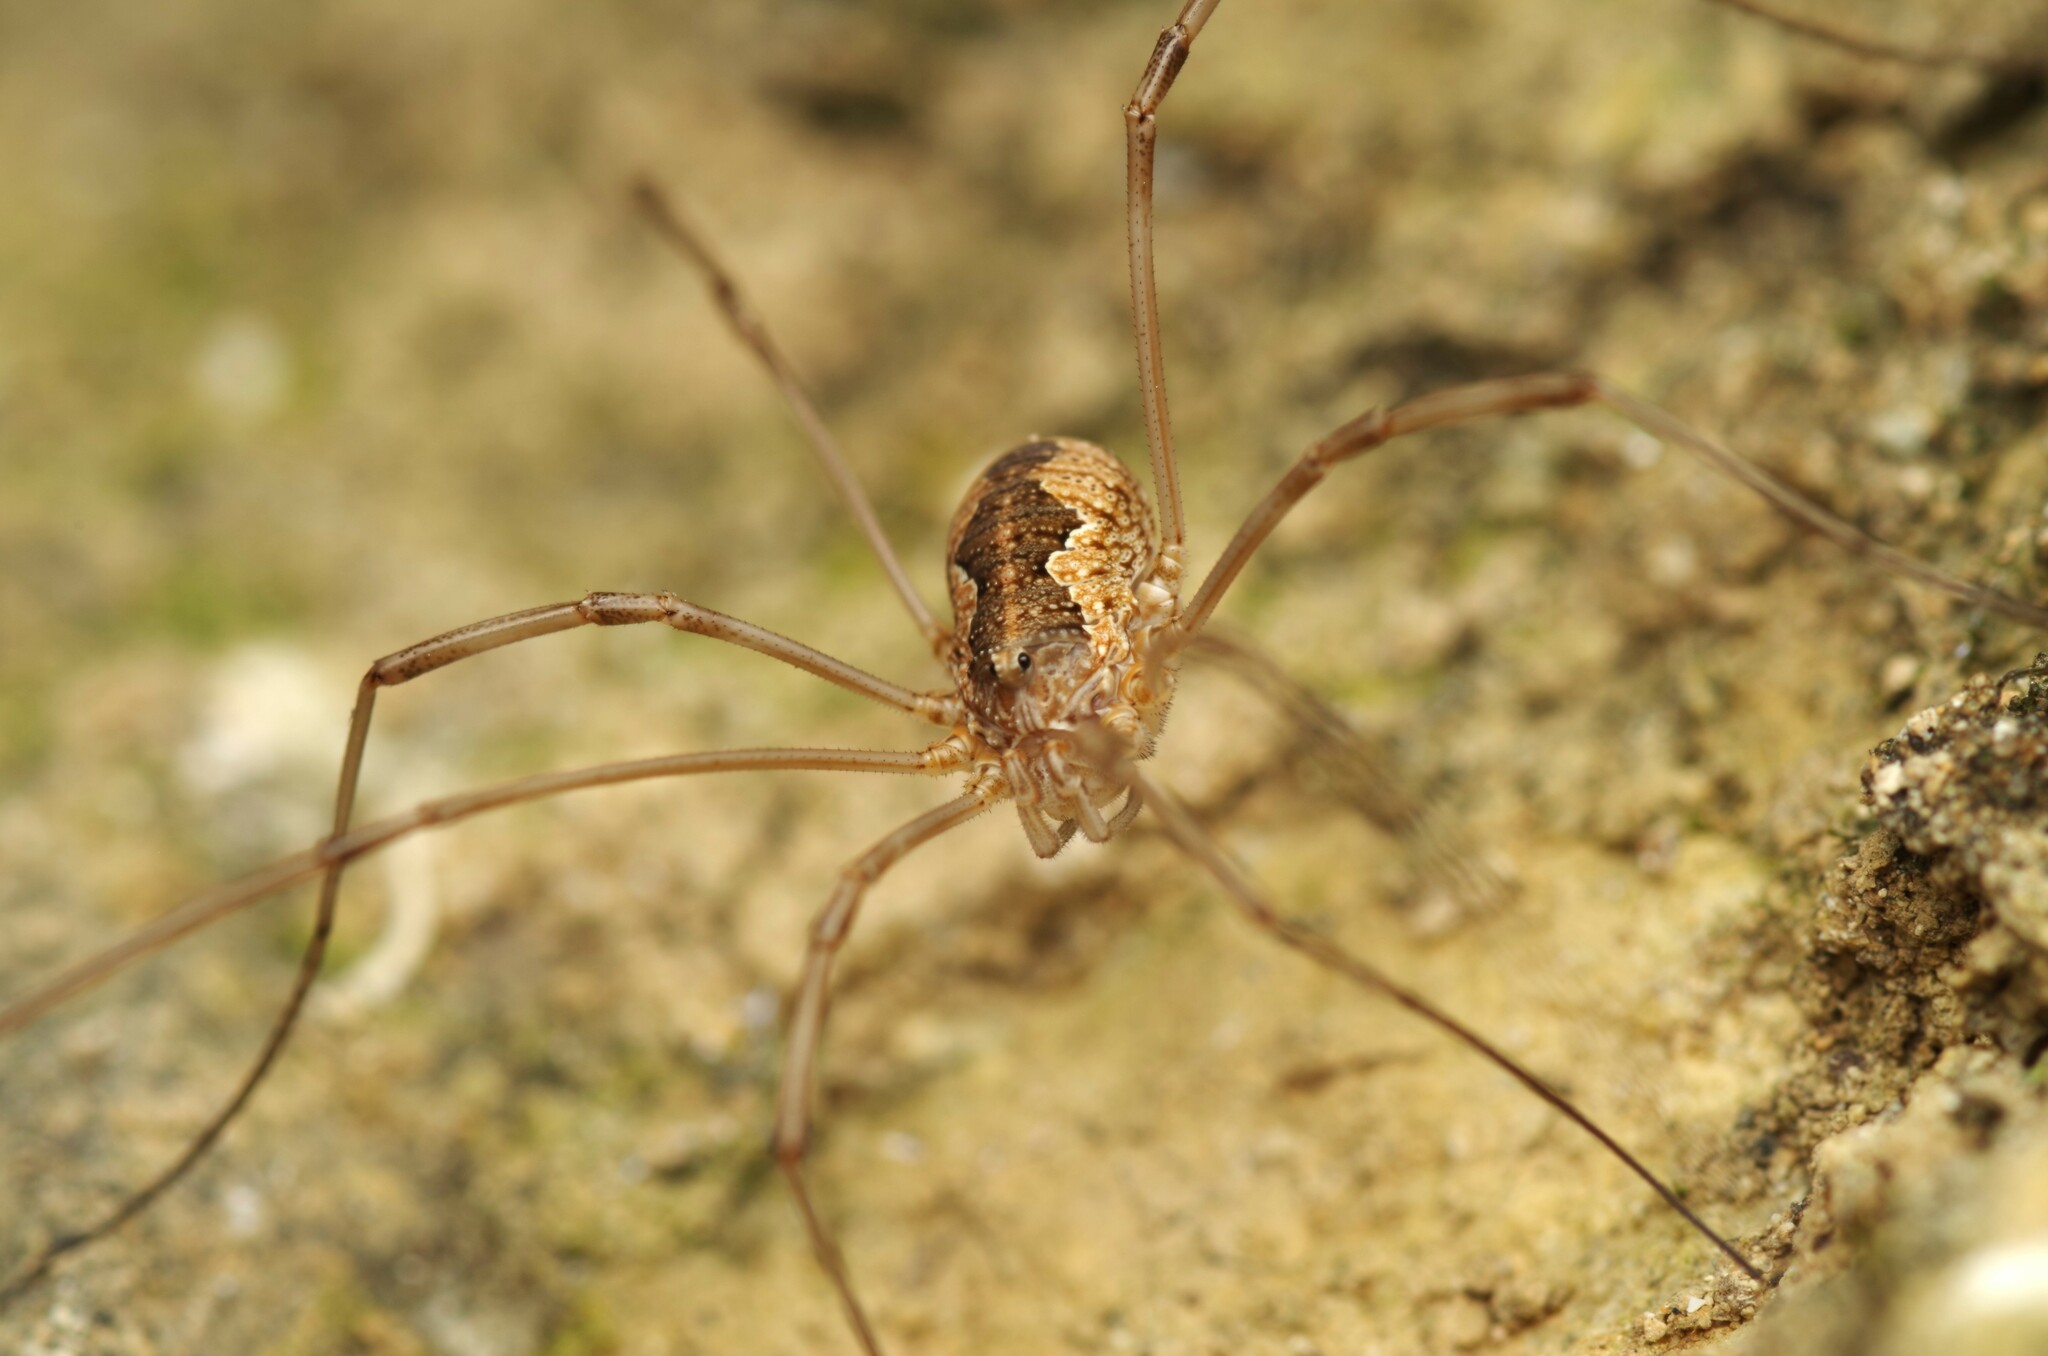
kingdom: Animalia
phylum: Arthropoda
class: Arachnida
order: Opiliones
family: Phalangiidae
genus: Phalangium
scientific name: Phalangium opilio
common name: Daddy longleg
